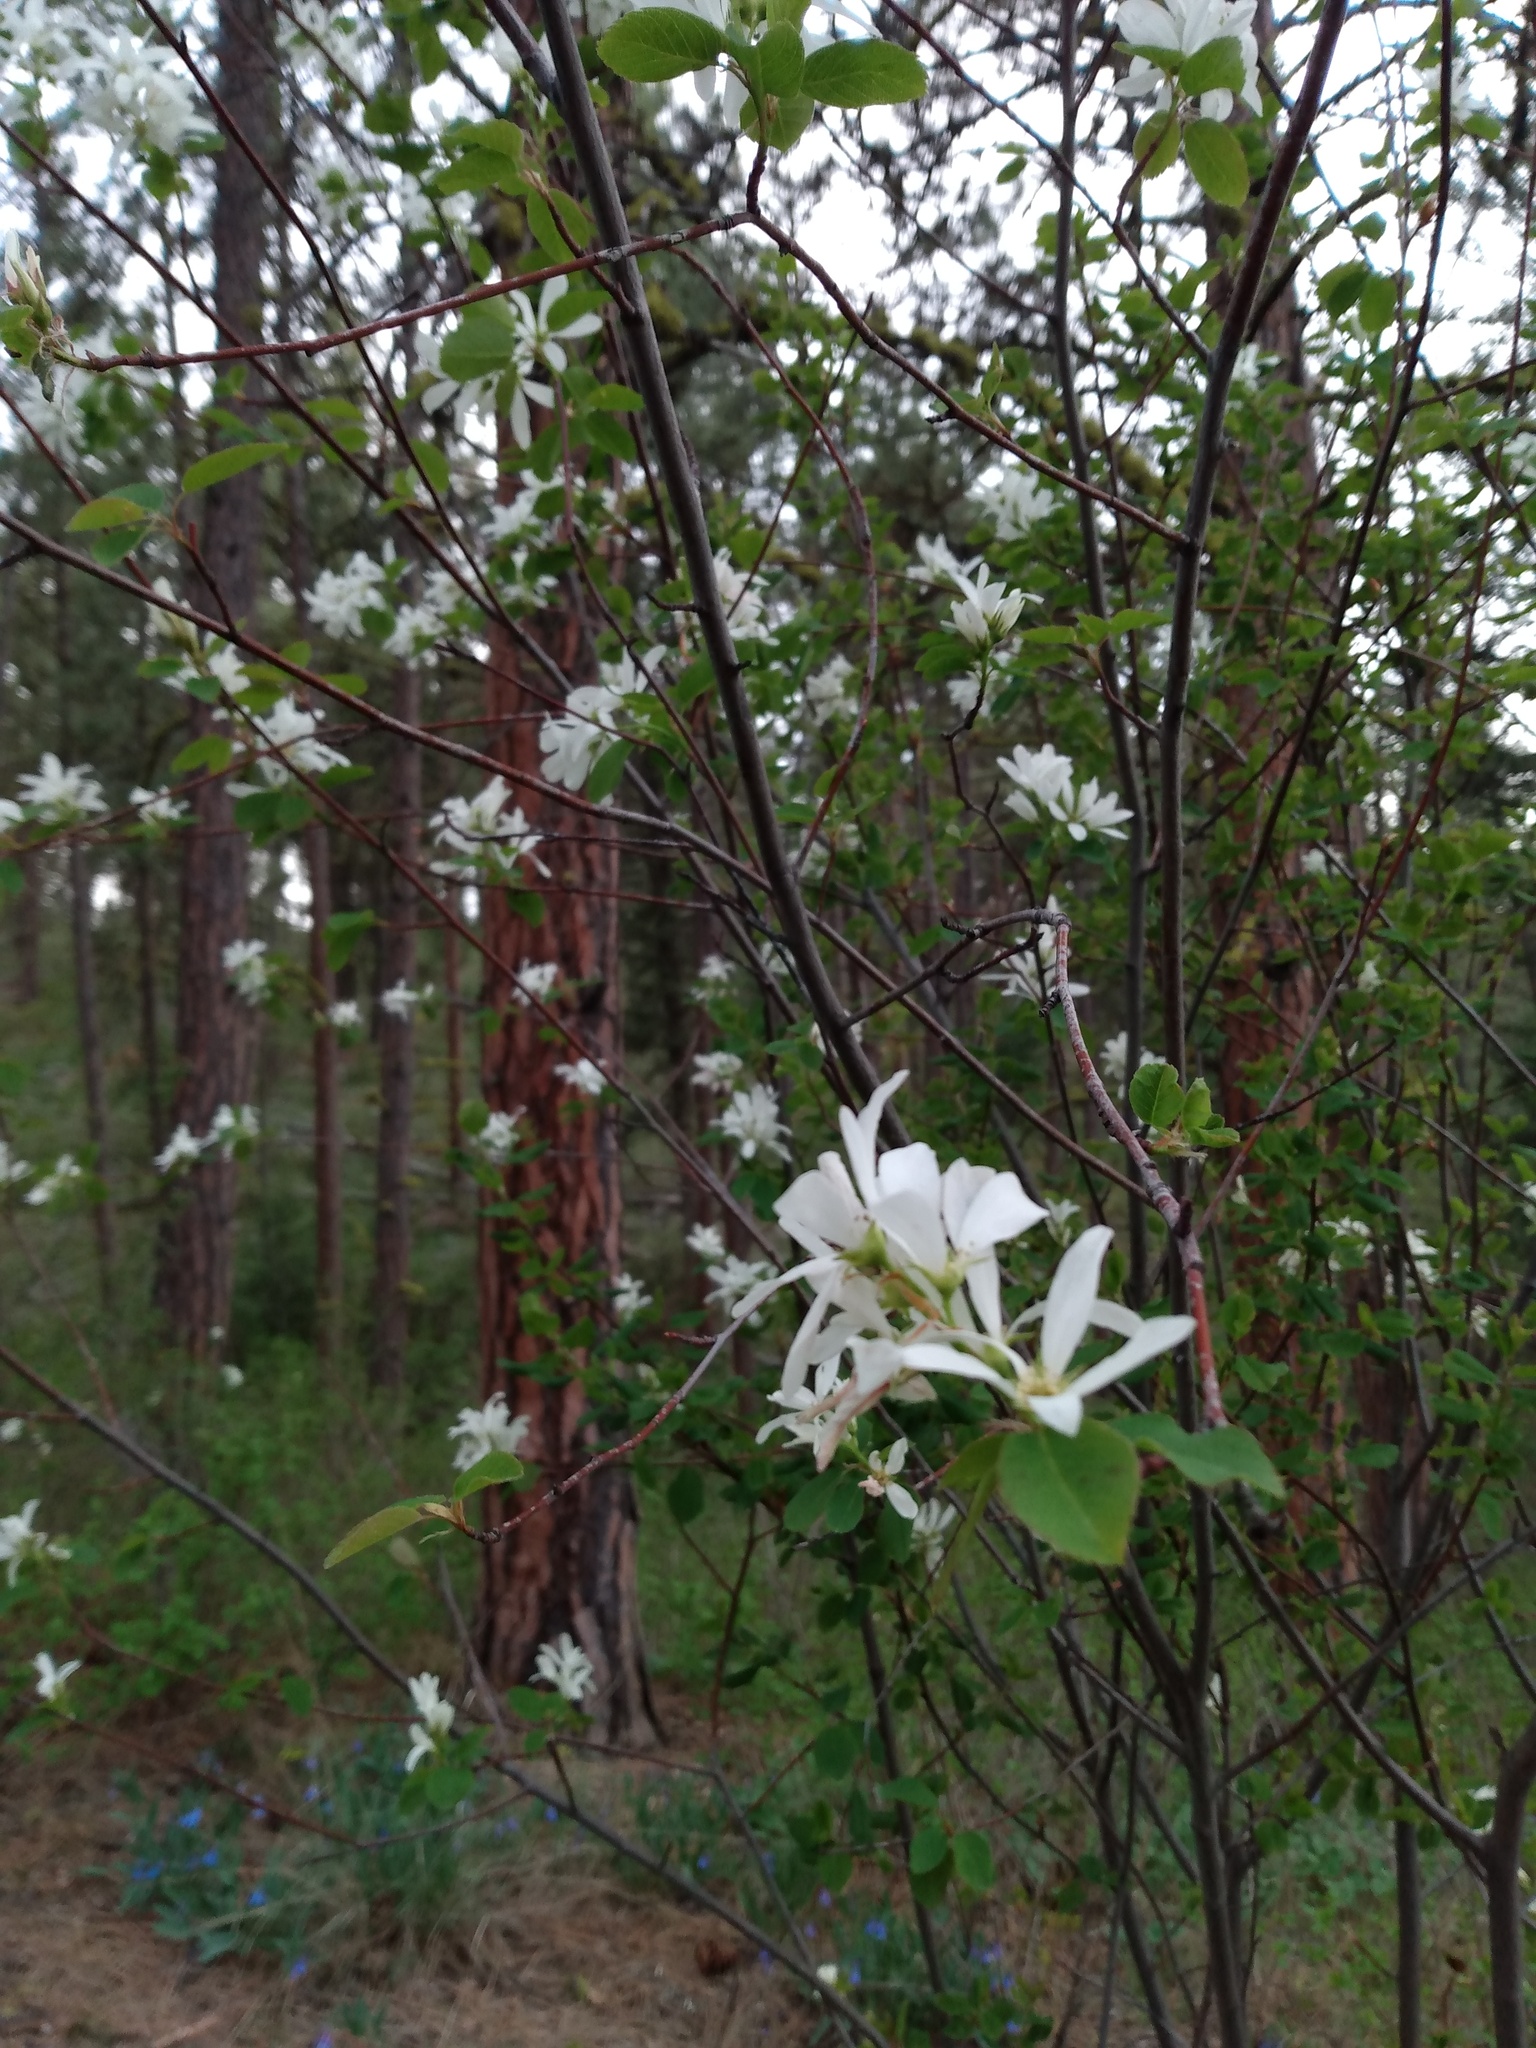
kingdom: Plantae
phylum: Tracheophyta
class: Magnoliopsida
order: Rosales
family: Rosaceae
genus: Amelanchier
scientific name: Amelanchier alnifolia
